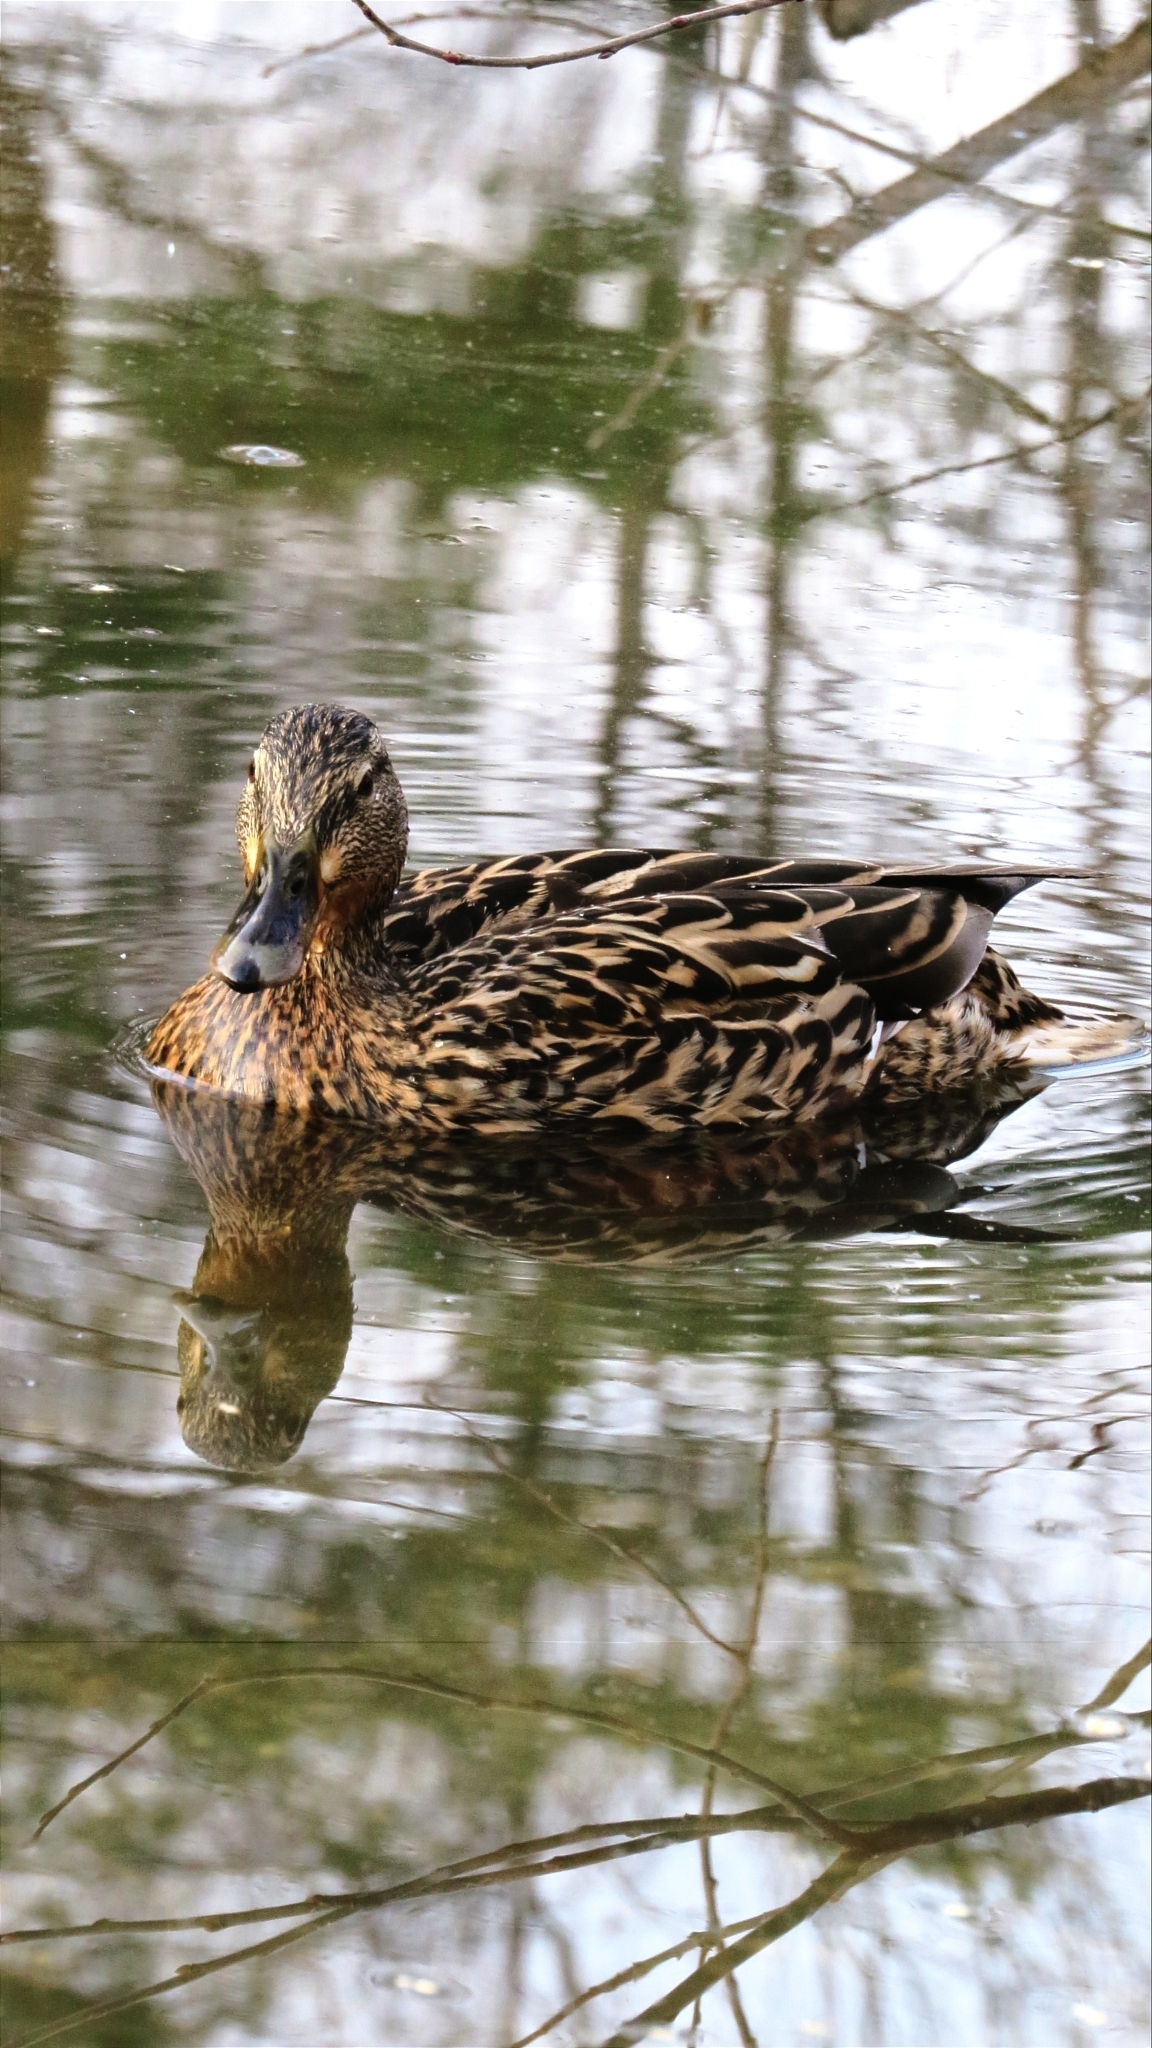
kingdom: Animalia
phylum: Chordata
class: Aves
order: Anseriformes
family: Anatidae
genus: Anas
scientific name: Anas platyrhynchos
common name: Mallard
